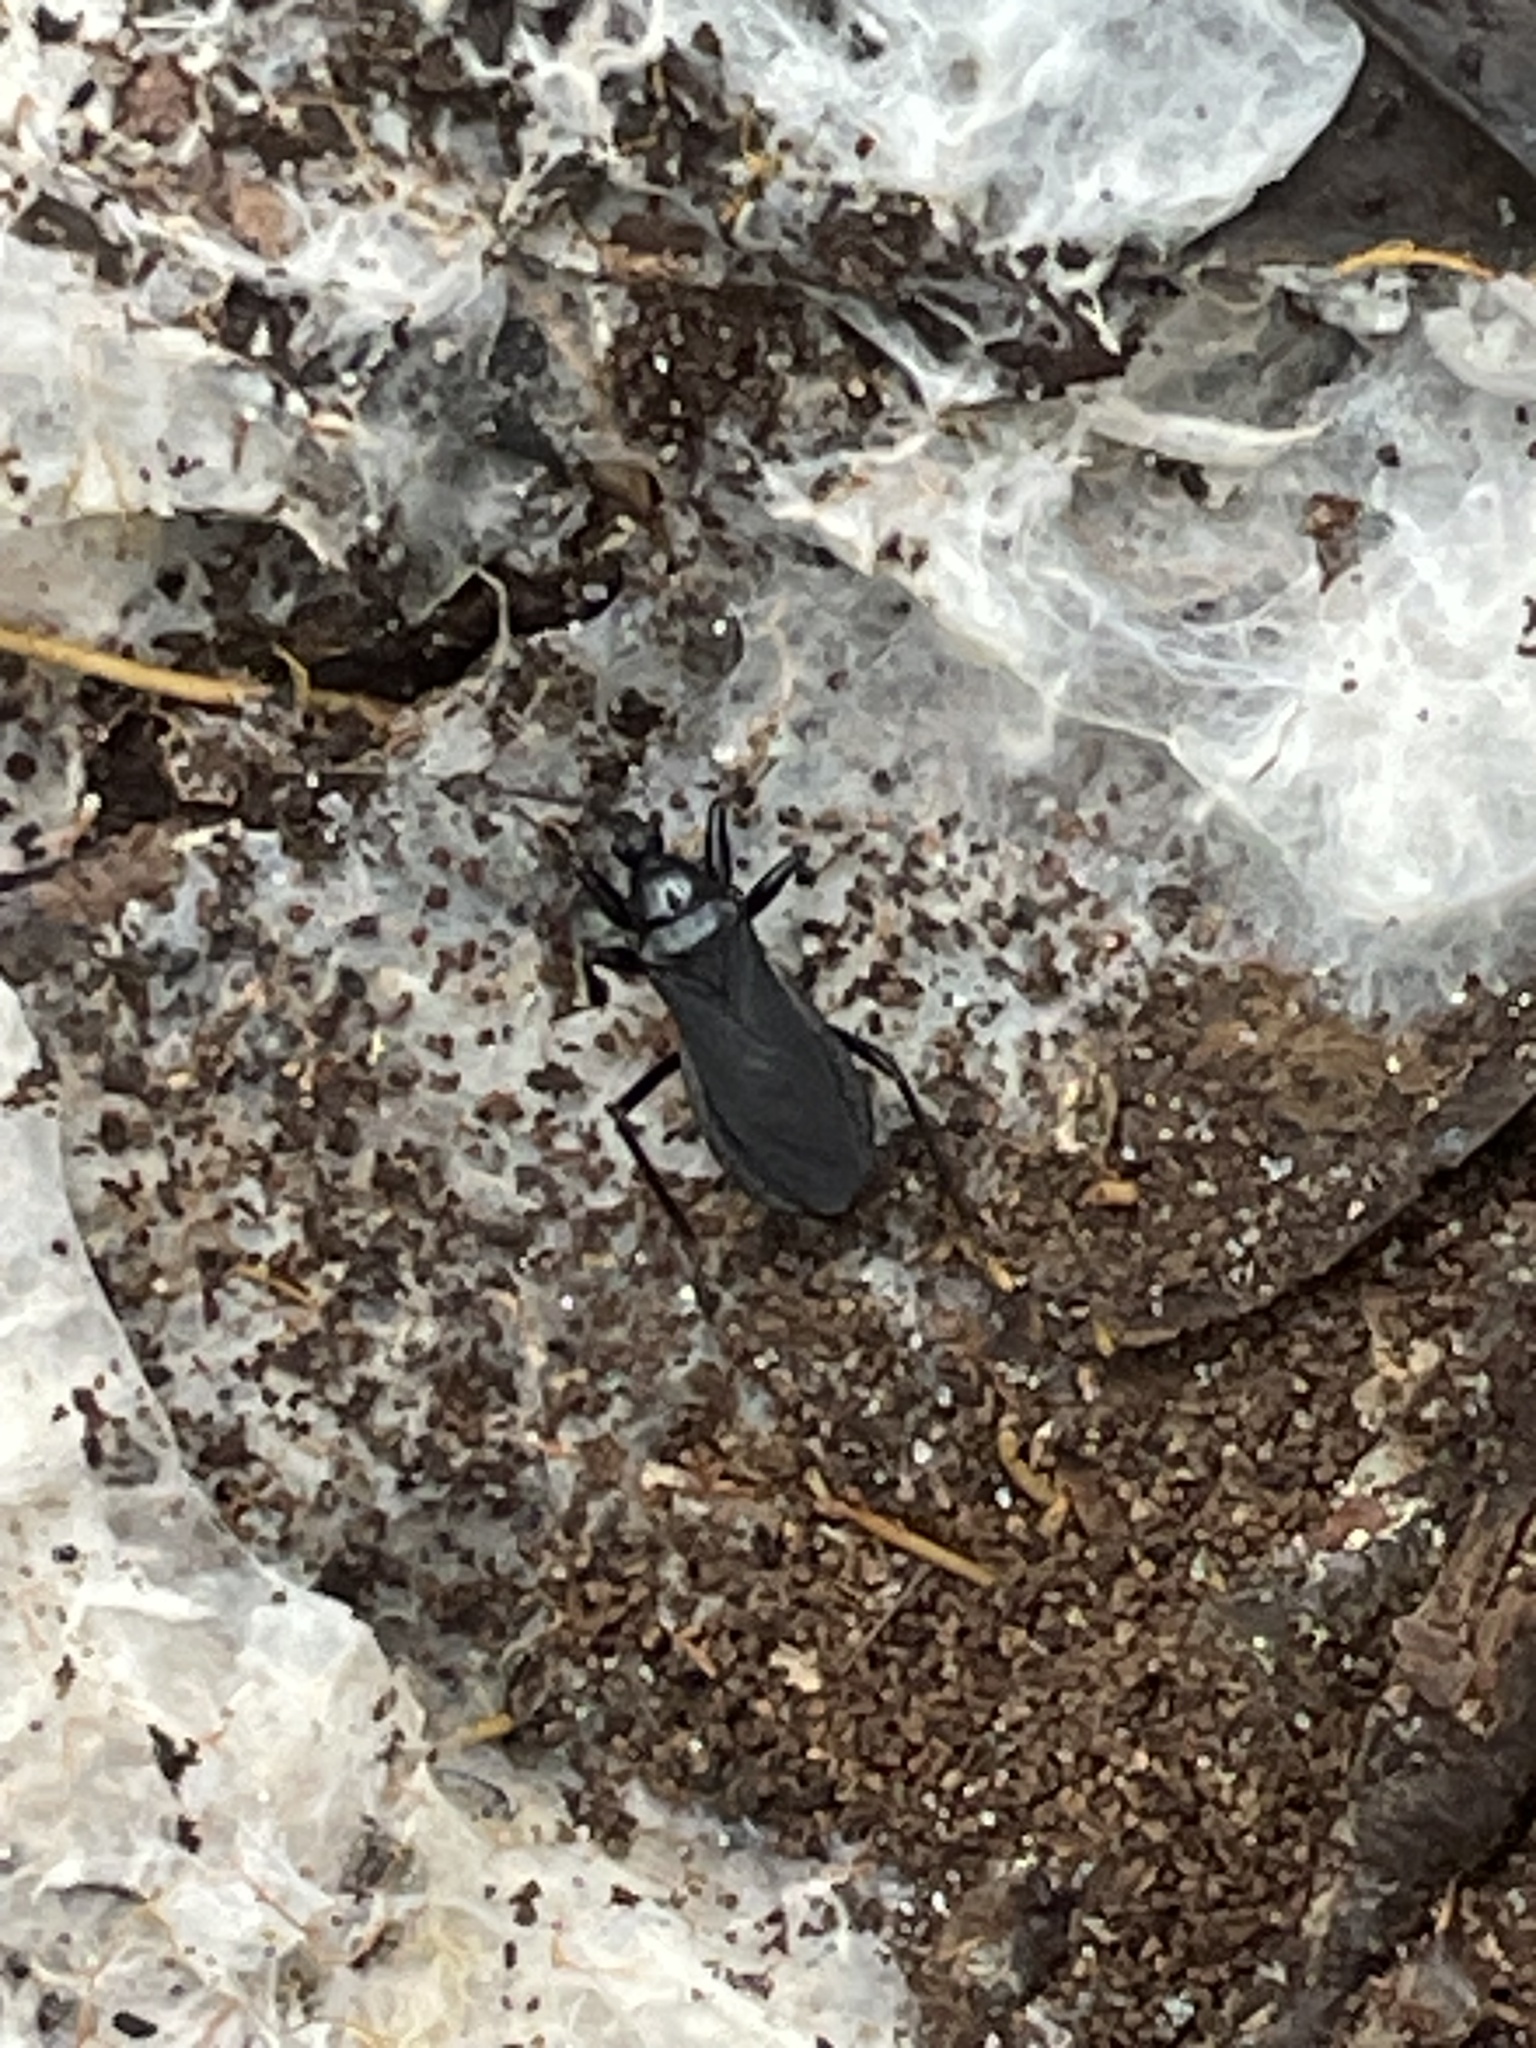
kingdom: Animalia
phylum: Arthropoda
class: Insecta
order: Hemiptera
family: Reduviidae
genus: Melanolestes
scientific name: Melanolestes picipes
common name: Assassin bug
